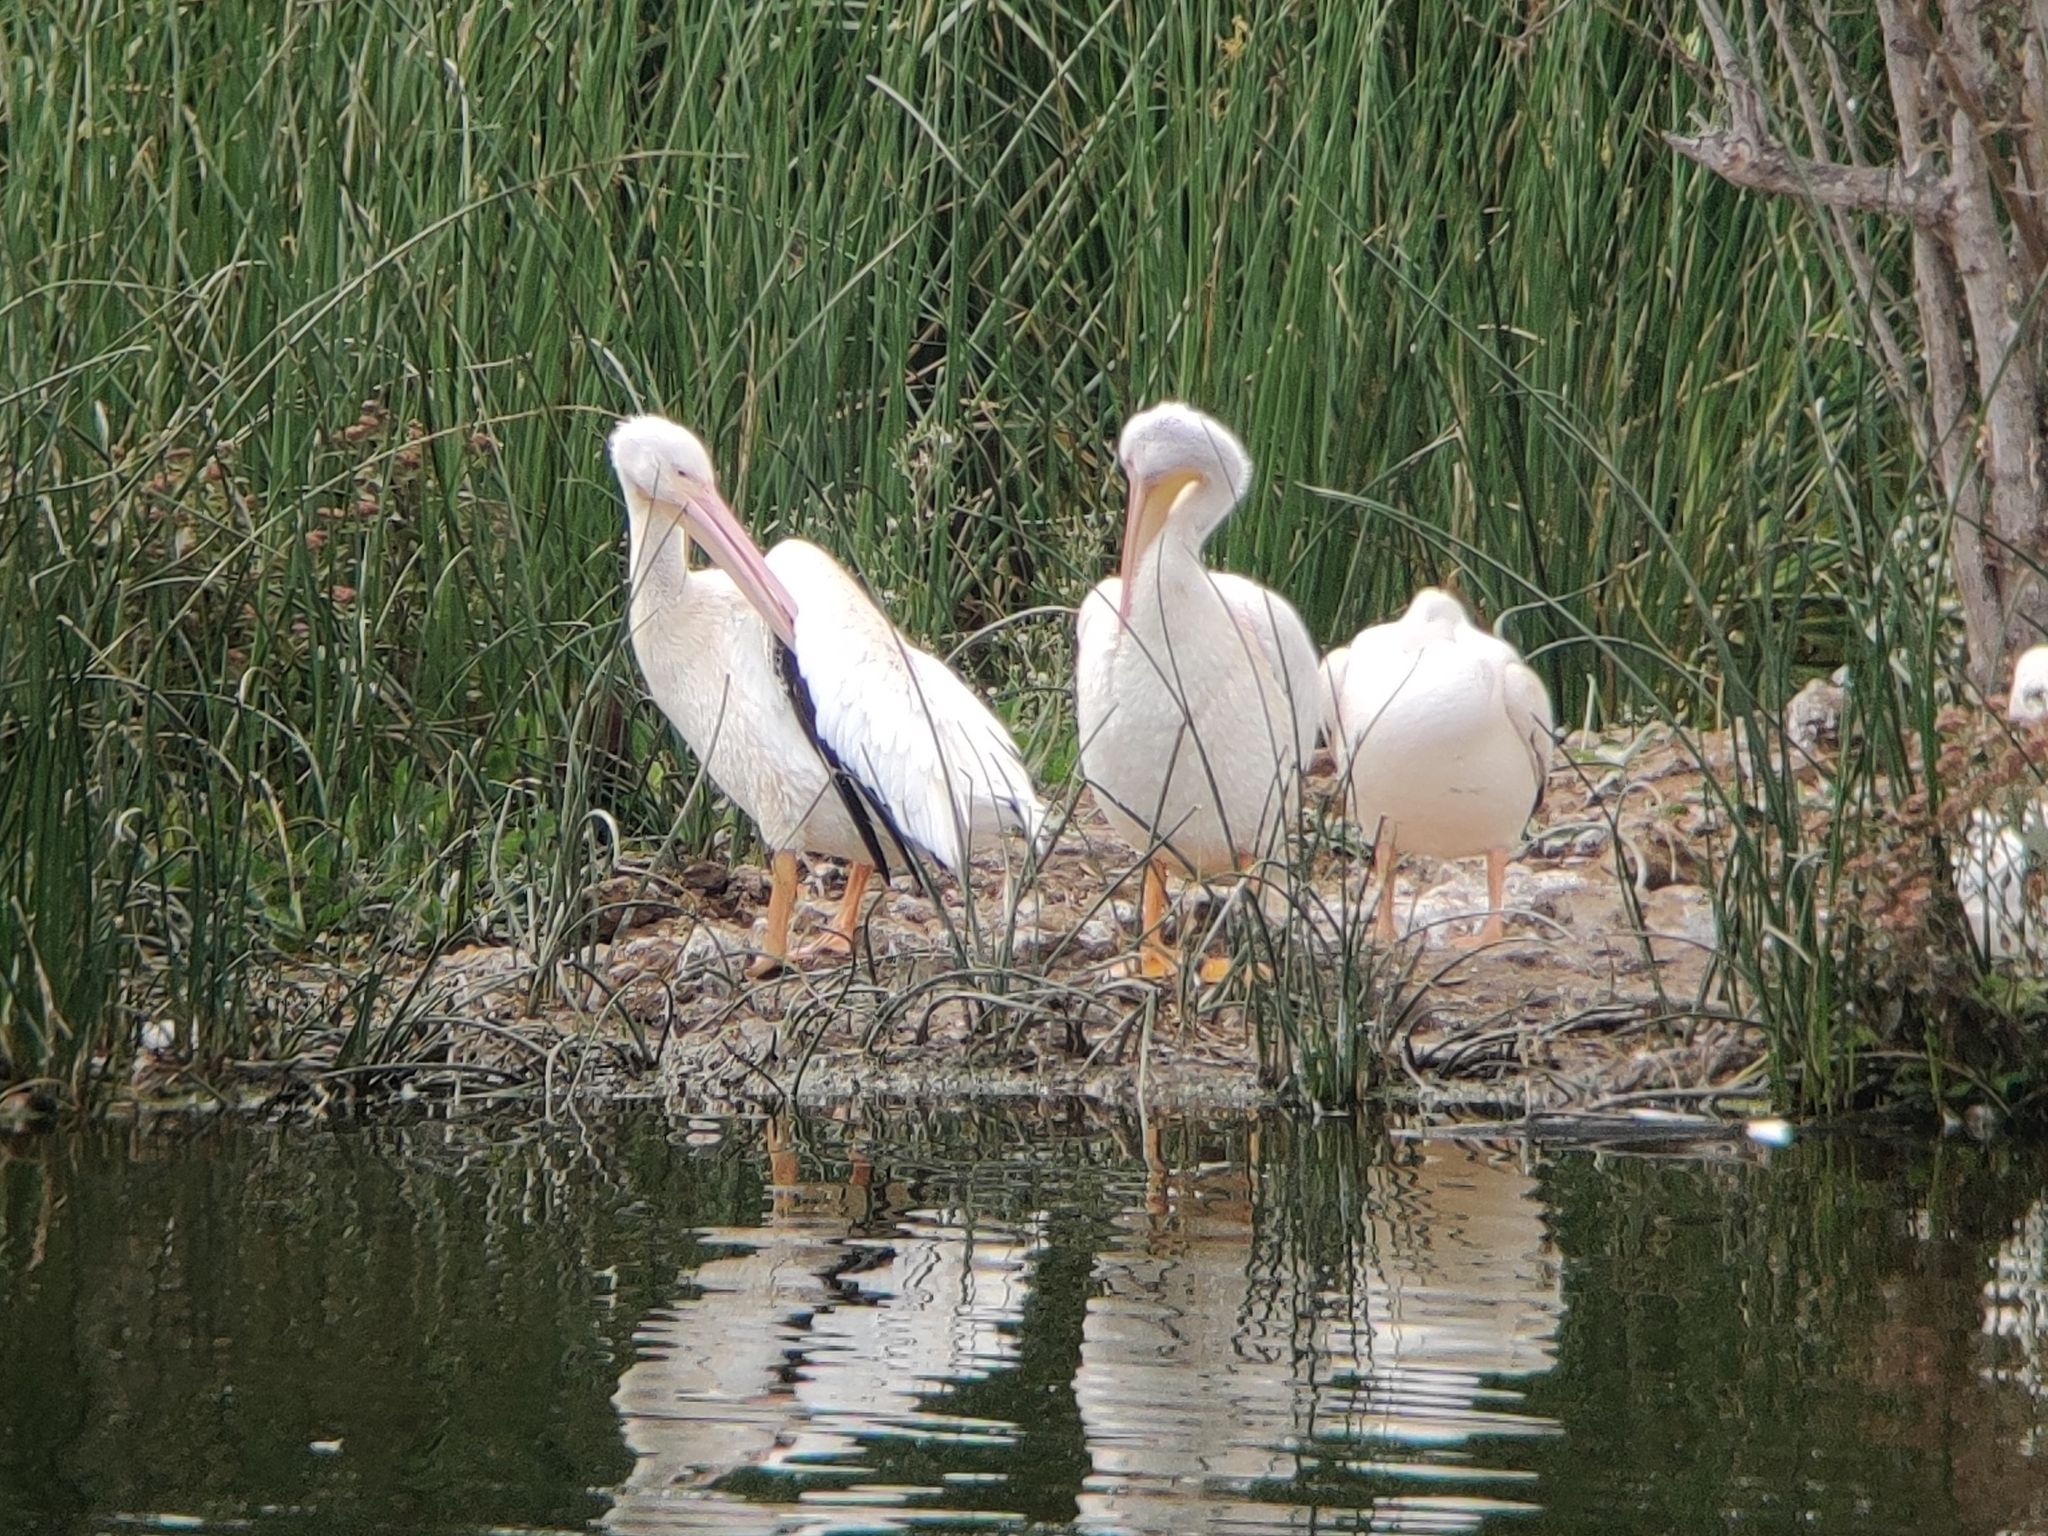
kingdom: Animalia
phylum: Chordata
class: Aves
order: Pelecaniformes
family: Pelecanidae
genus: Pelecanus
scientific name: Pelecanus erythrorhynchos
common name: American white pelican
